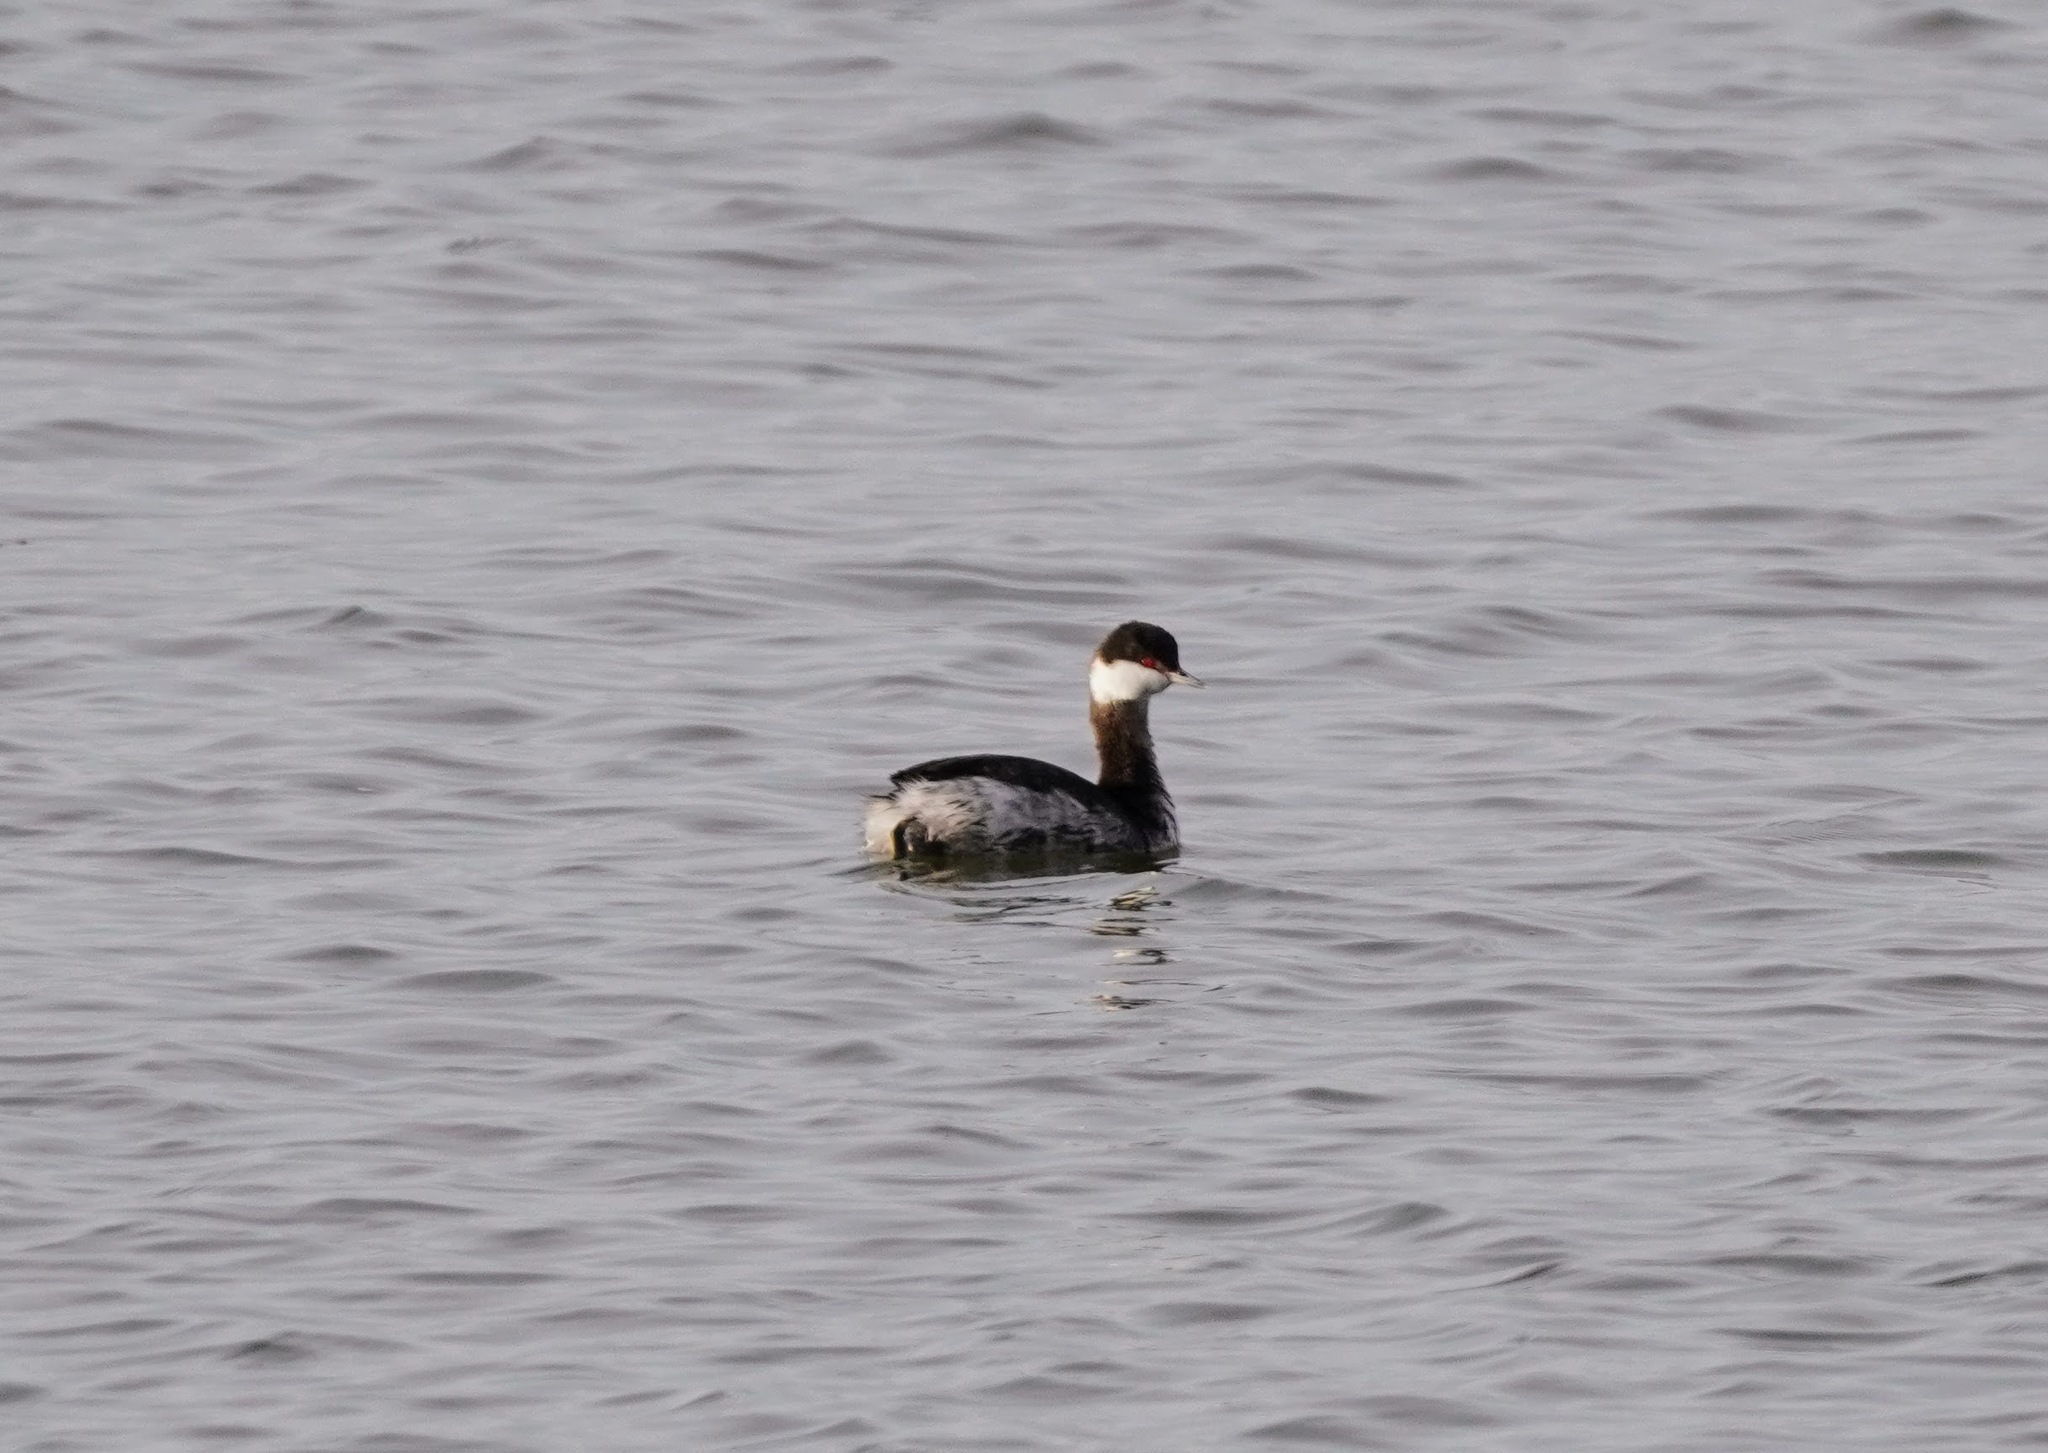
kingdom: Animalia
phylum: Chordata
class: Aves
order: Podicipediformes
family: Podicipedidae
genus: Podiceps
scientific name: Podiceps auritus
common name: Horned grebe
